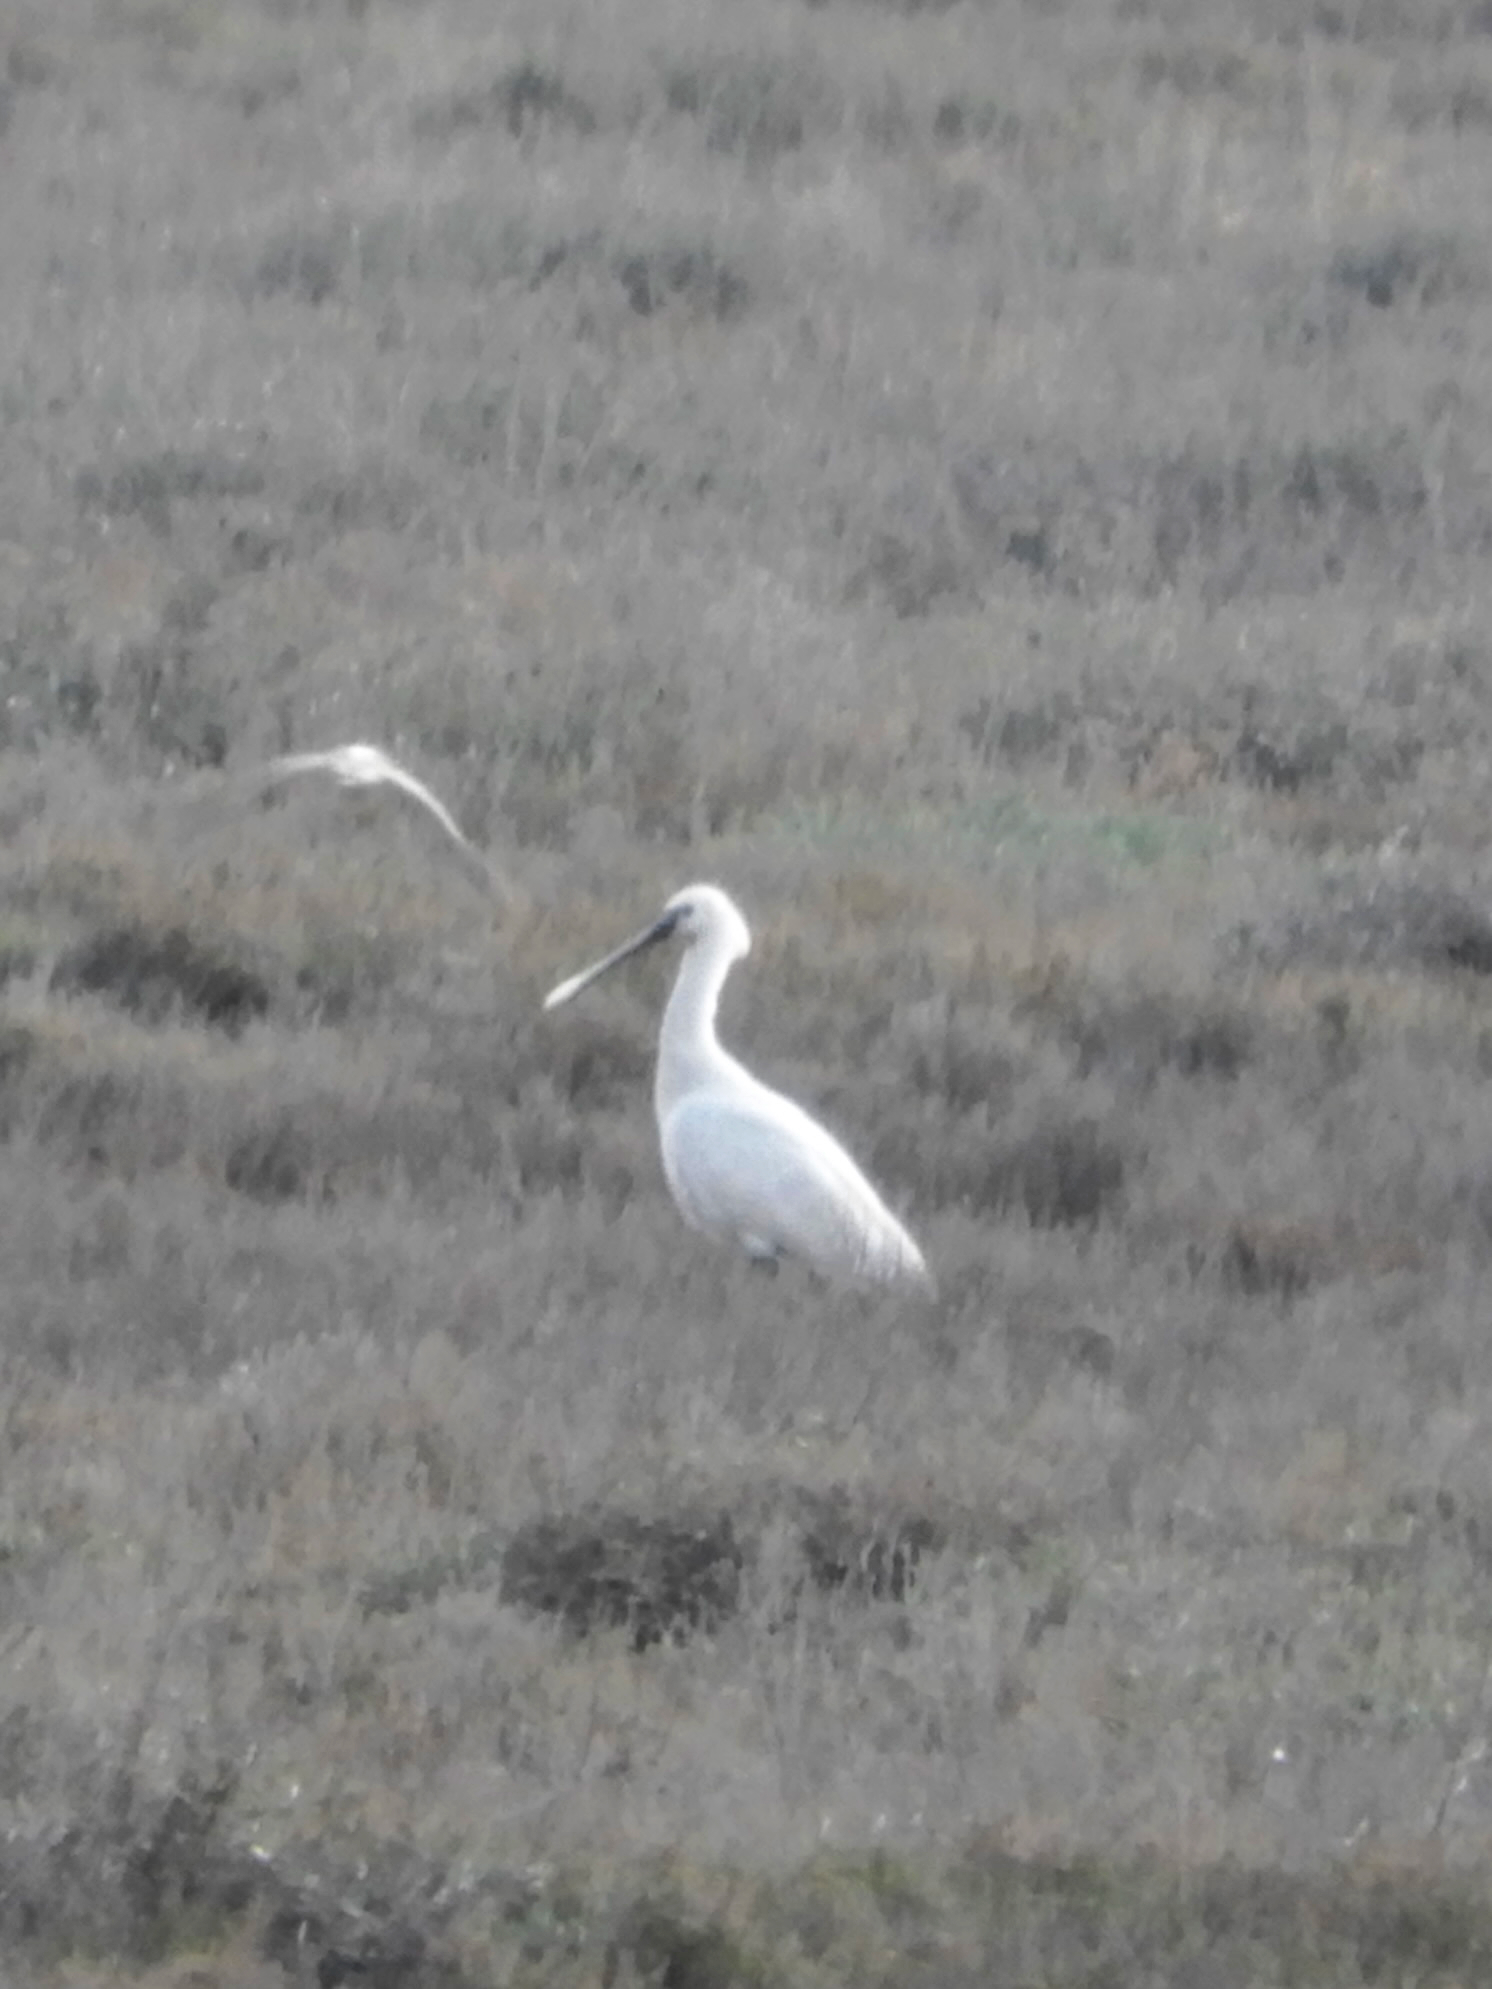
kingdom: Animalia
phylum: Chordata
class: Aves
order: Pelecaniformes
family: Threskiornithidae
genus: Platalea
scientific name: Platalea leucorodia
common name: Eurasian spoonbill
